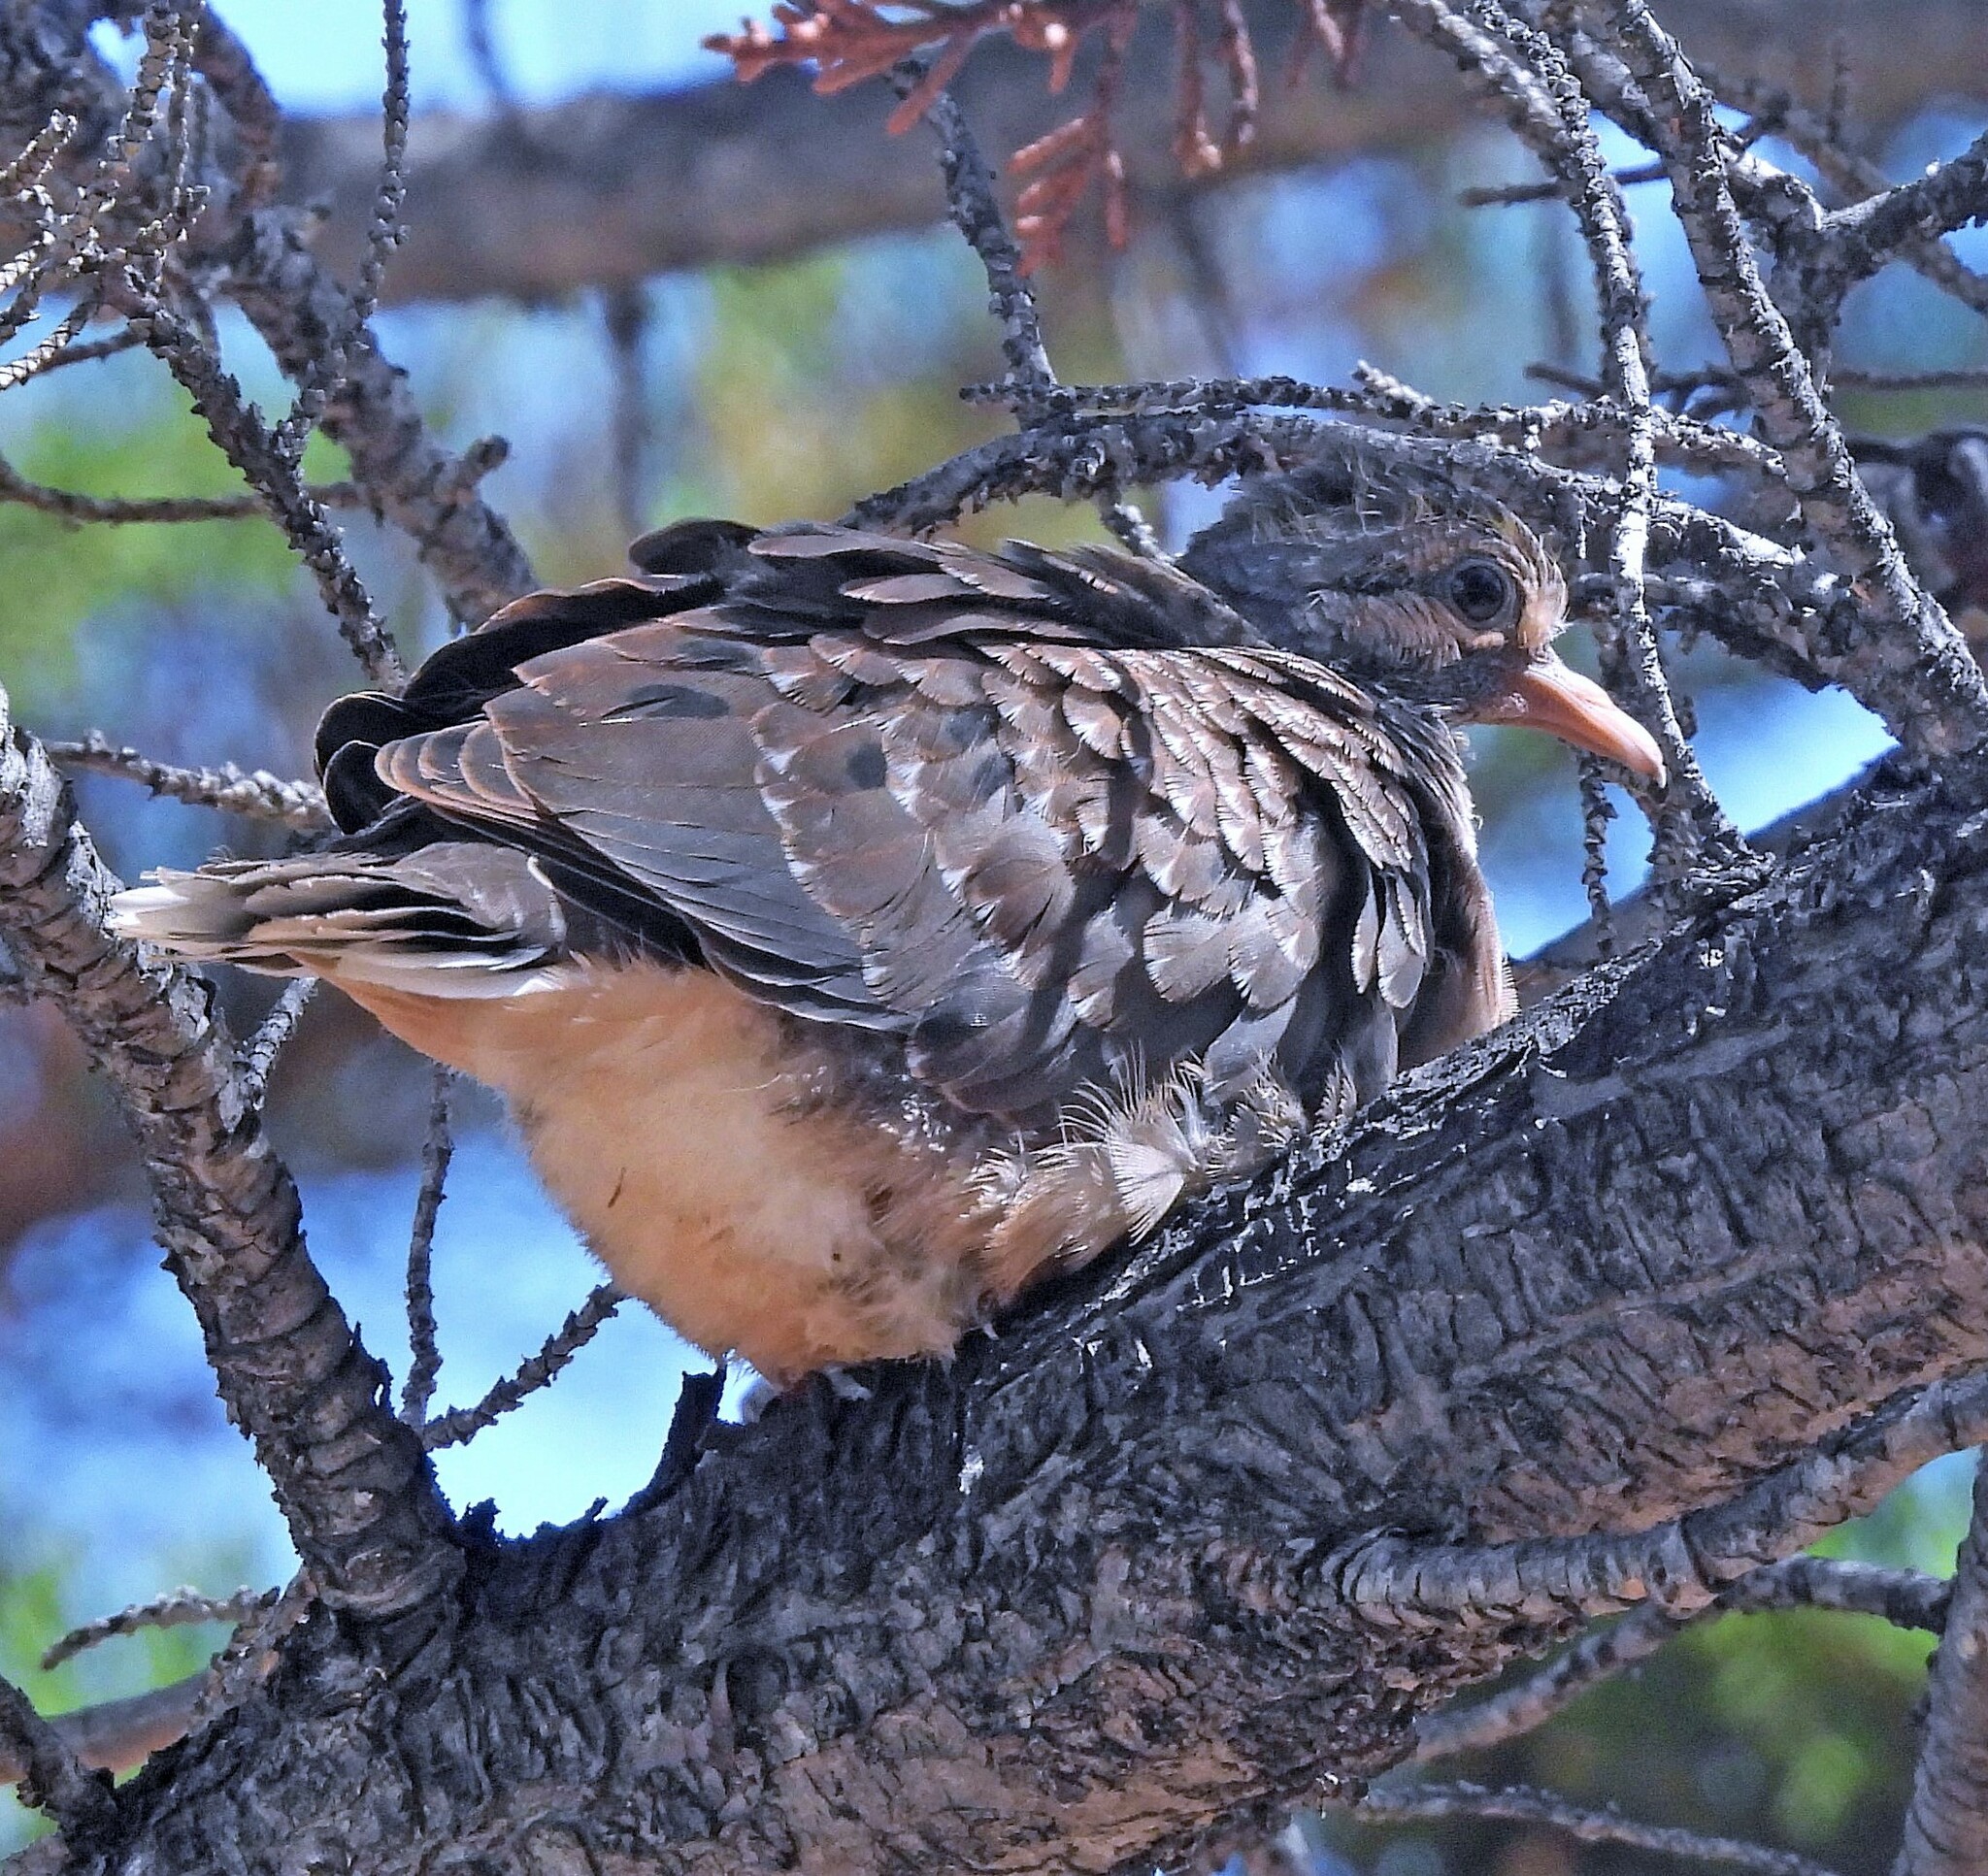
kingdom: Animalia
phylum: Chordata
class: Aves
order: Columbiformes
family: Columbidae
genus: Zenaida
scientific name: Zenaida auriculata
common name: Eared dove
